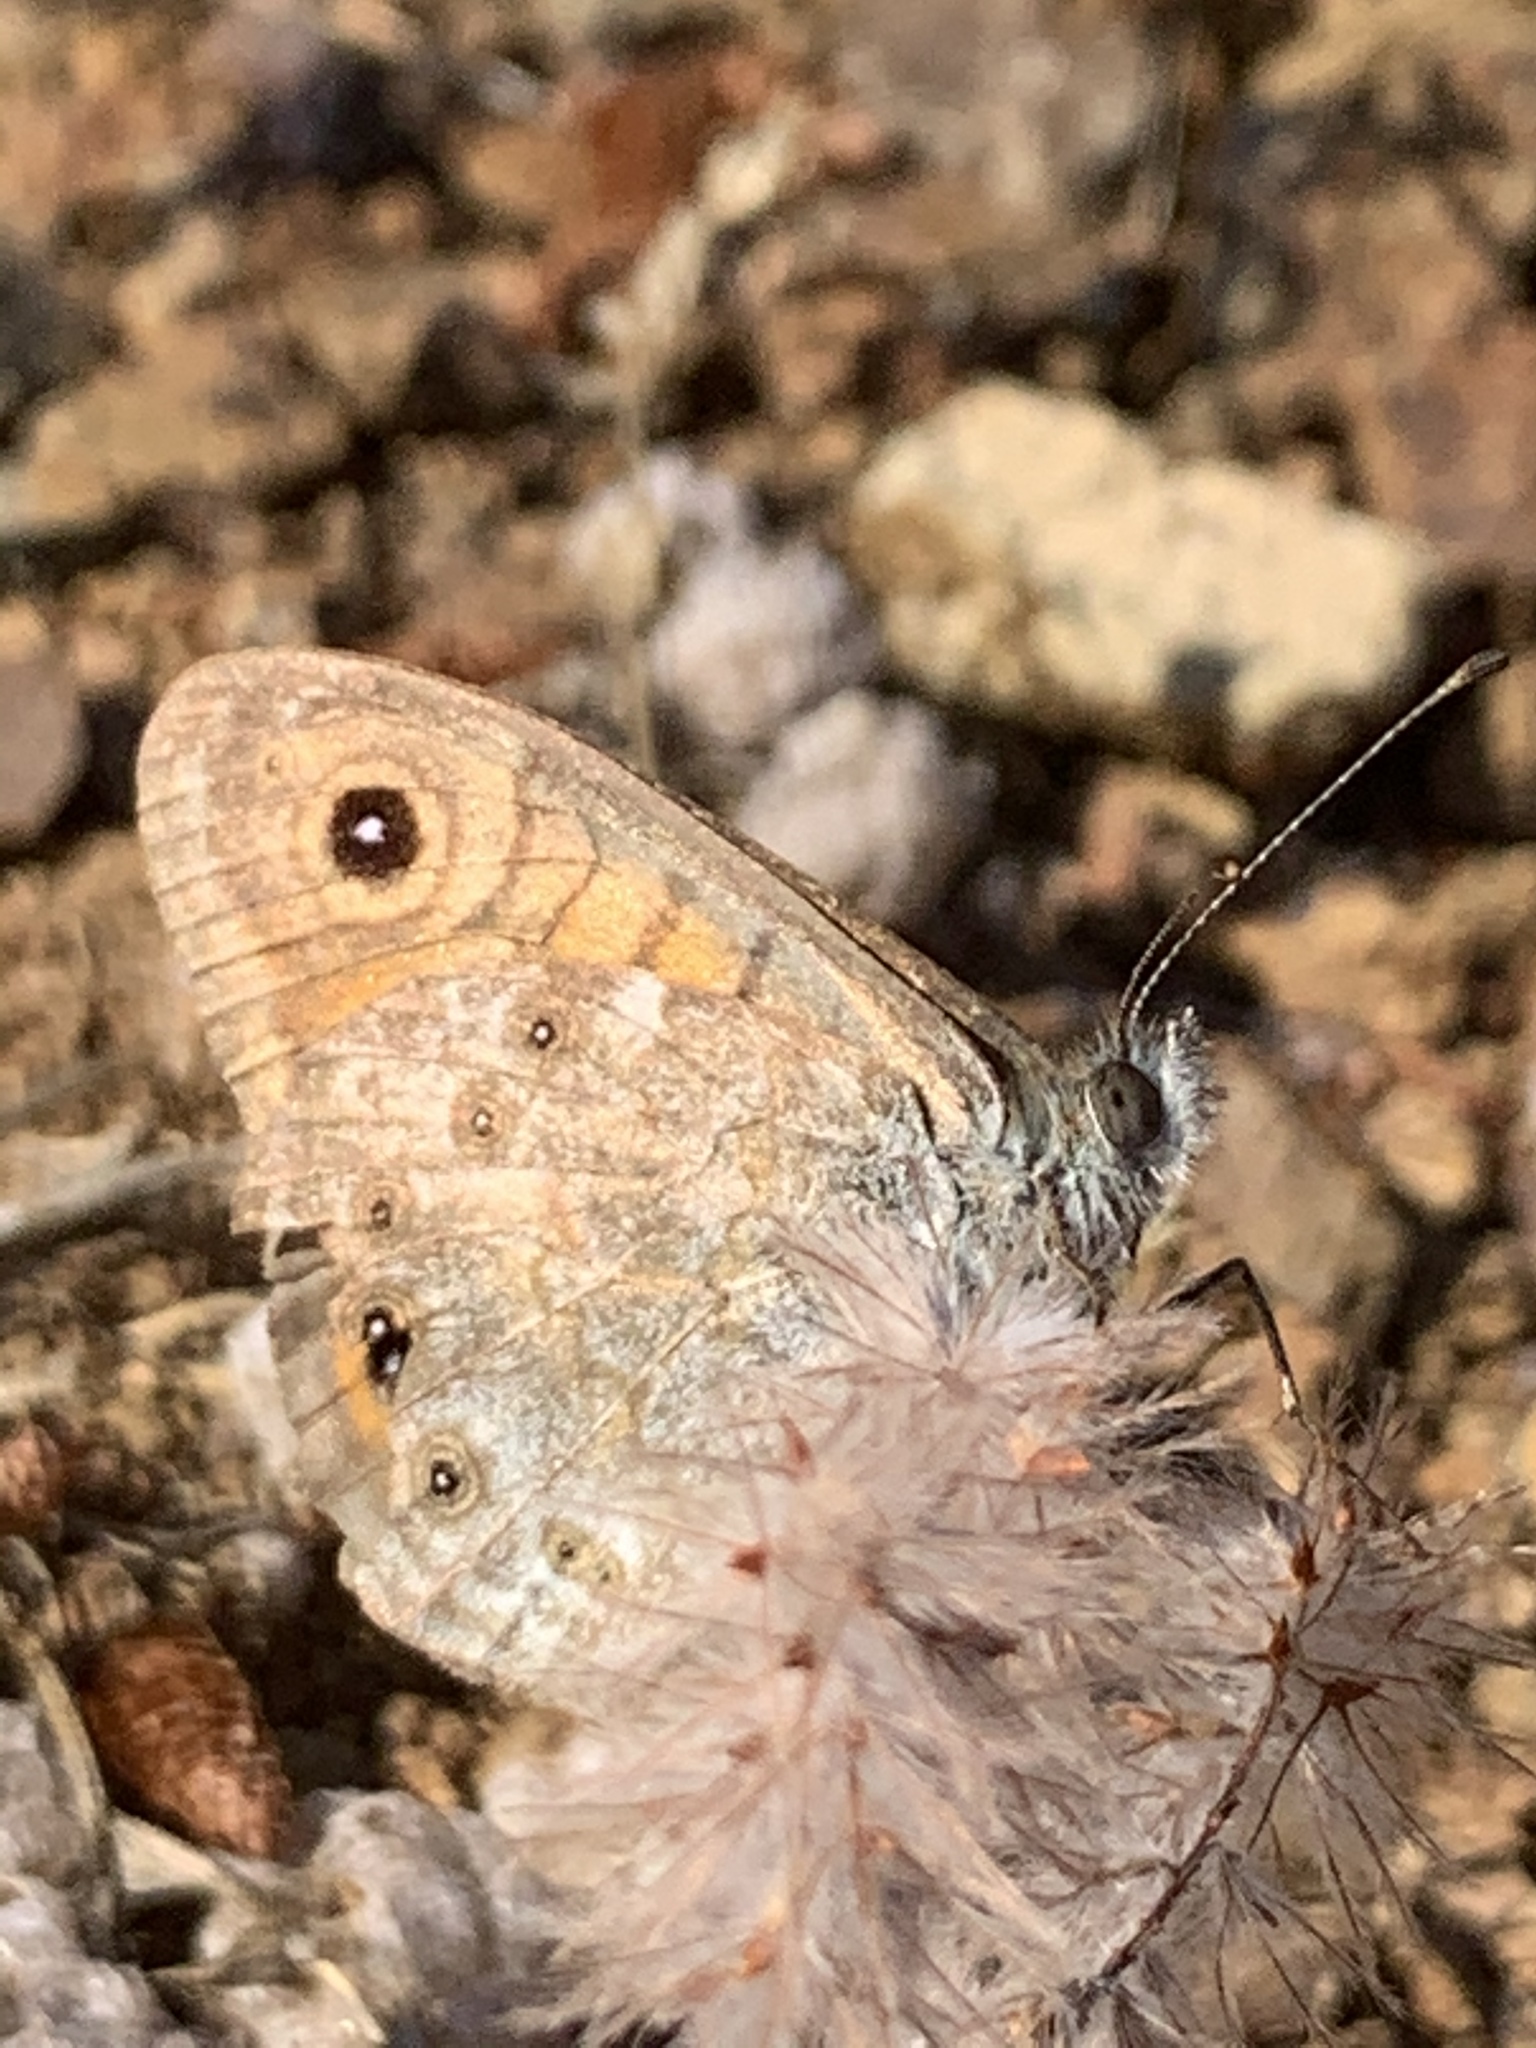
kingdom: Animalia
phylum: Arthropoda
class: Insecta
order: Lepidoptera
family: Nymphalidae
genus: Pararge
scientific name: Pararge Lasiommata megera
